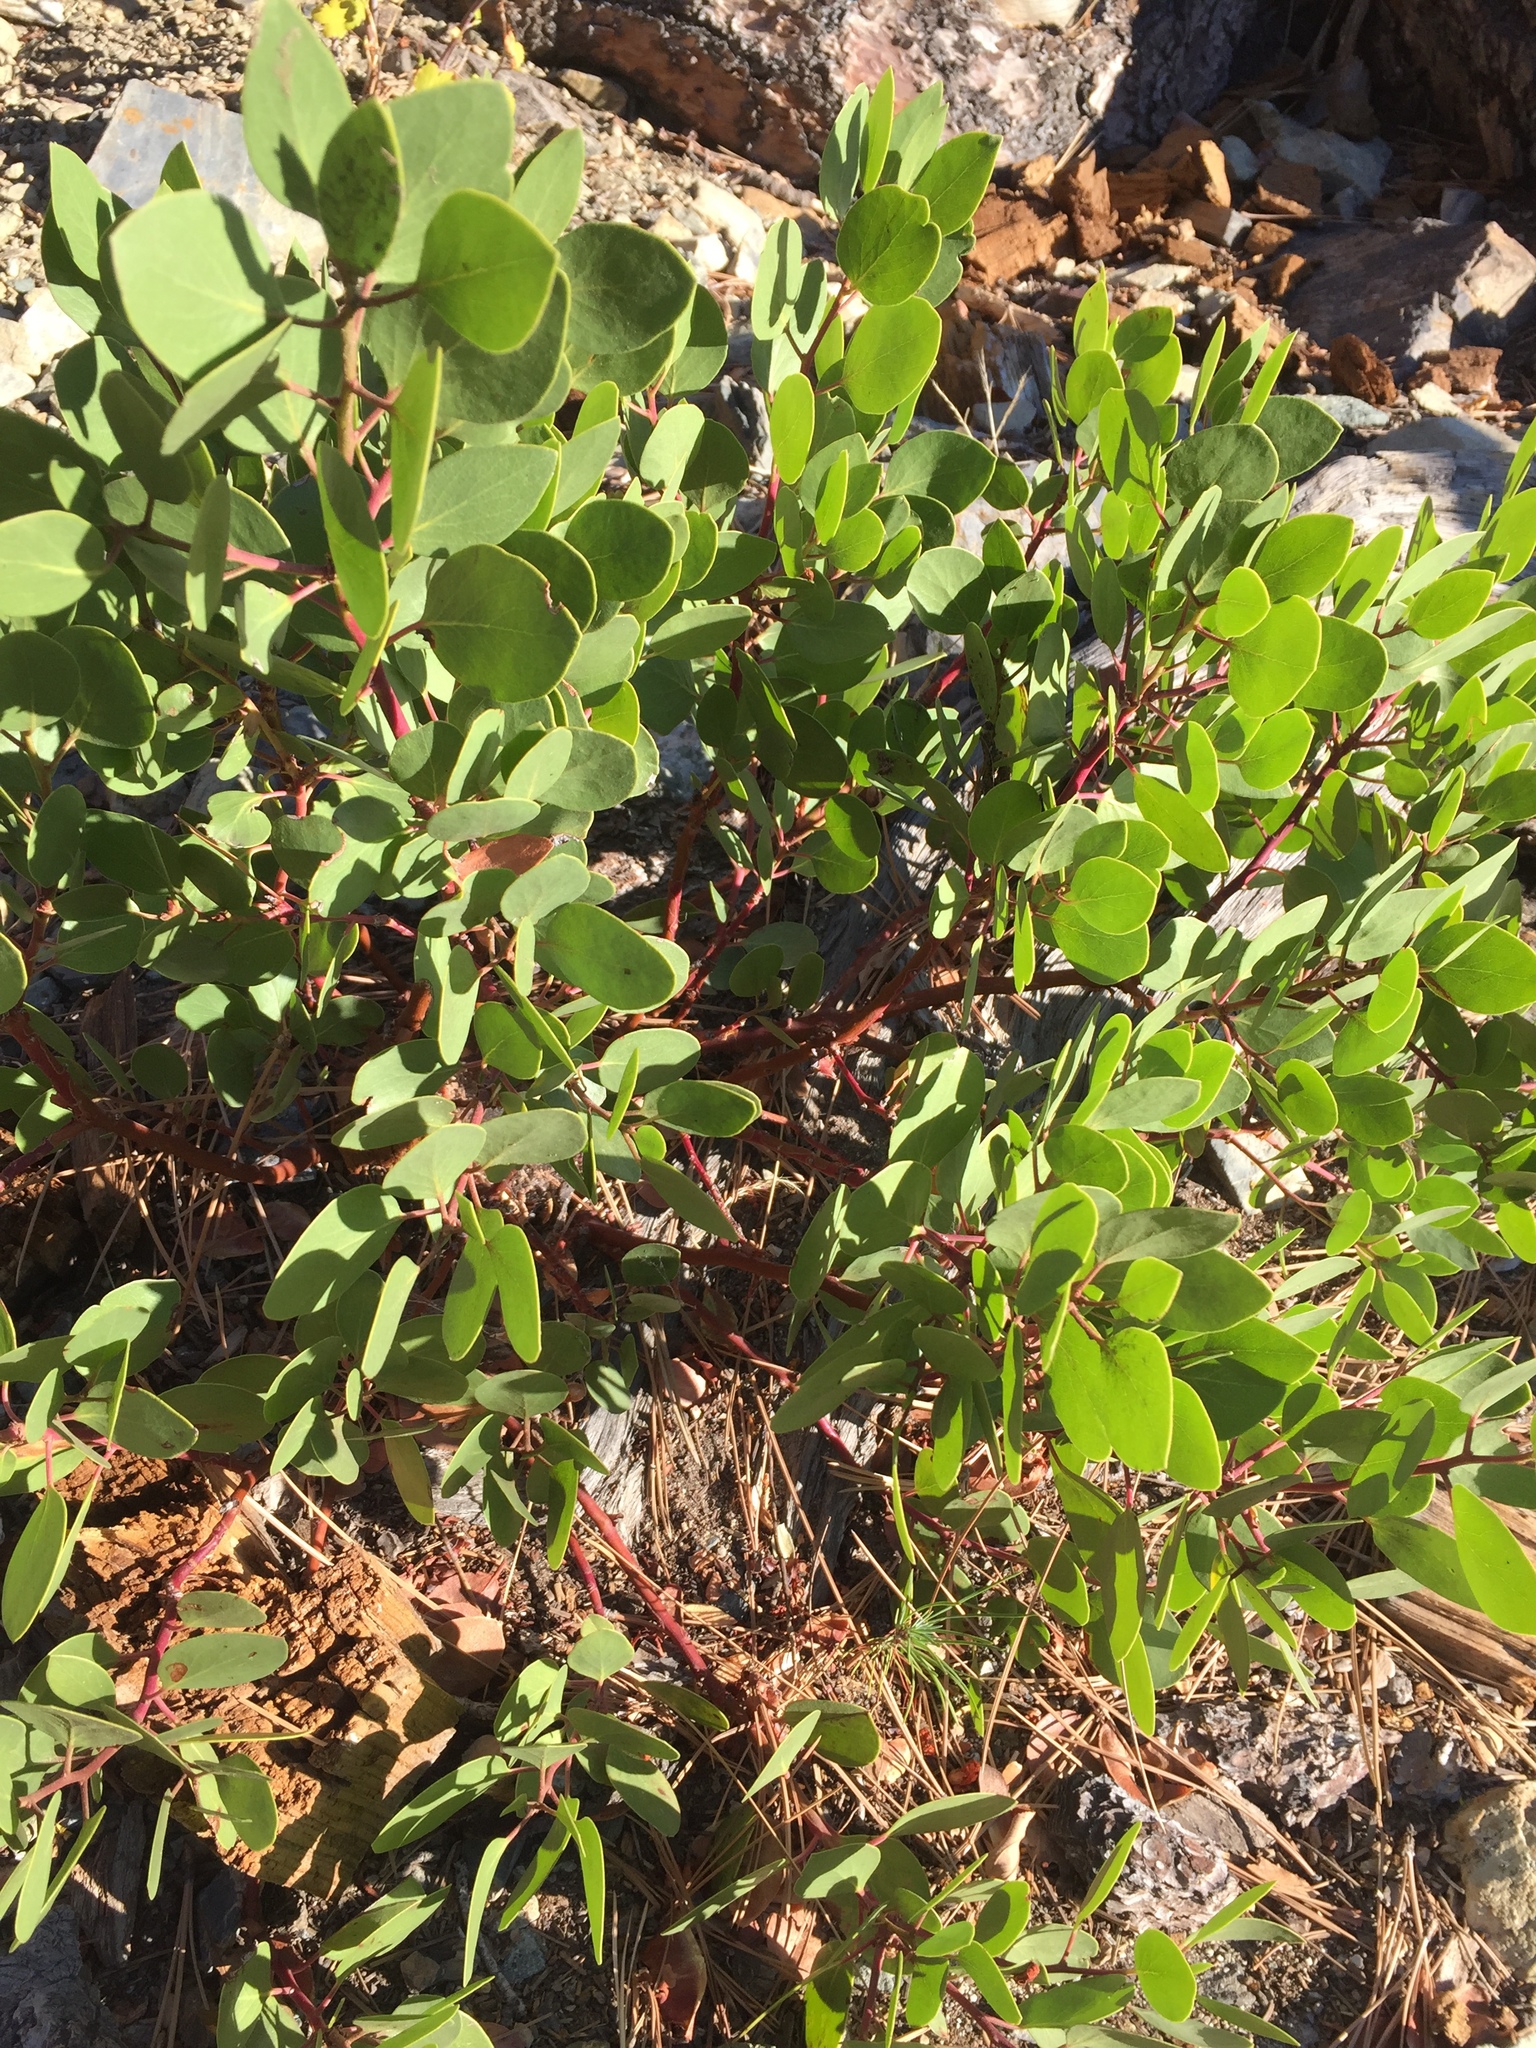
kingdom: Plantae
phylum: Tracheophyta
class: Magnoliopsida
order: Ericales
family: Ericaceae
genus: Arctostaphylos
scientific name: Arctostaphylos nevadensis
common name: Pinemat manzanita
